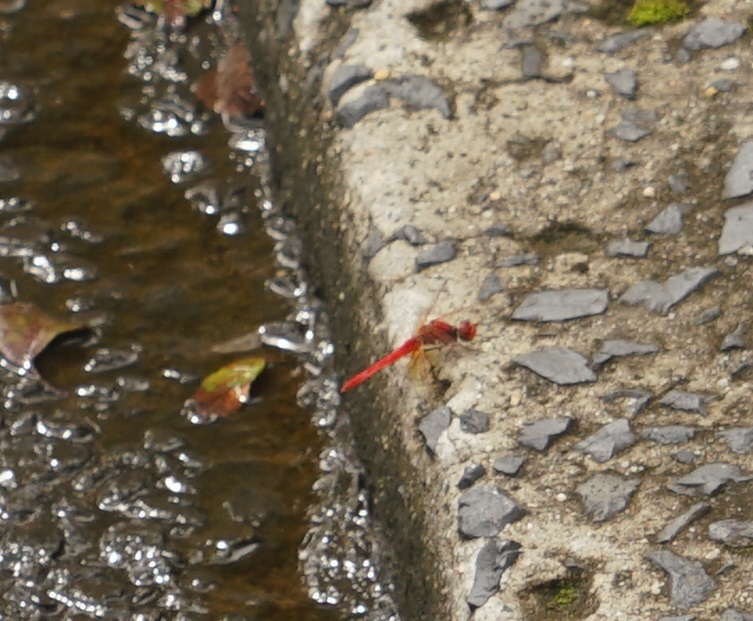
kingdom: Animalia
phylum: Arthropoda
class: Insecta
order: Odonata
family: Libellulidae
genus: Diplacodes
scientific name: Diplacodes haematodes
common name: Scarlet percher
